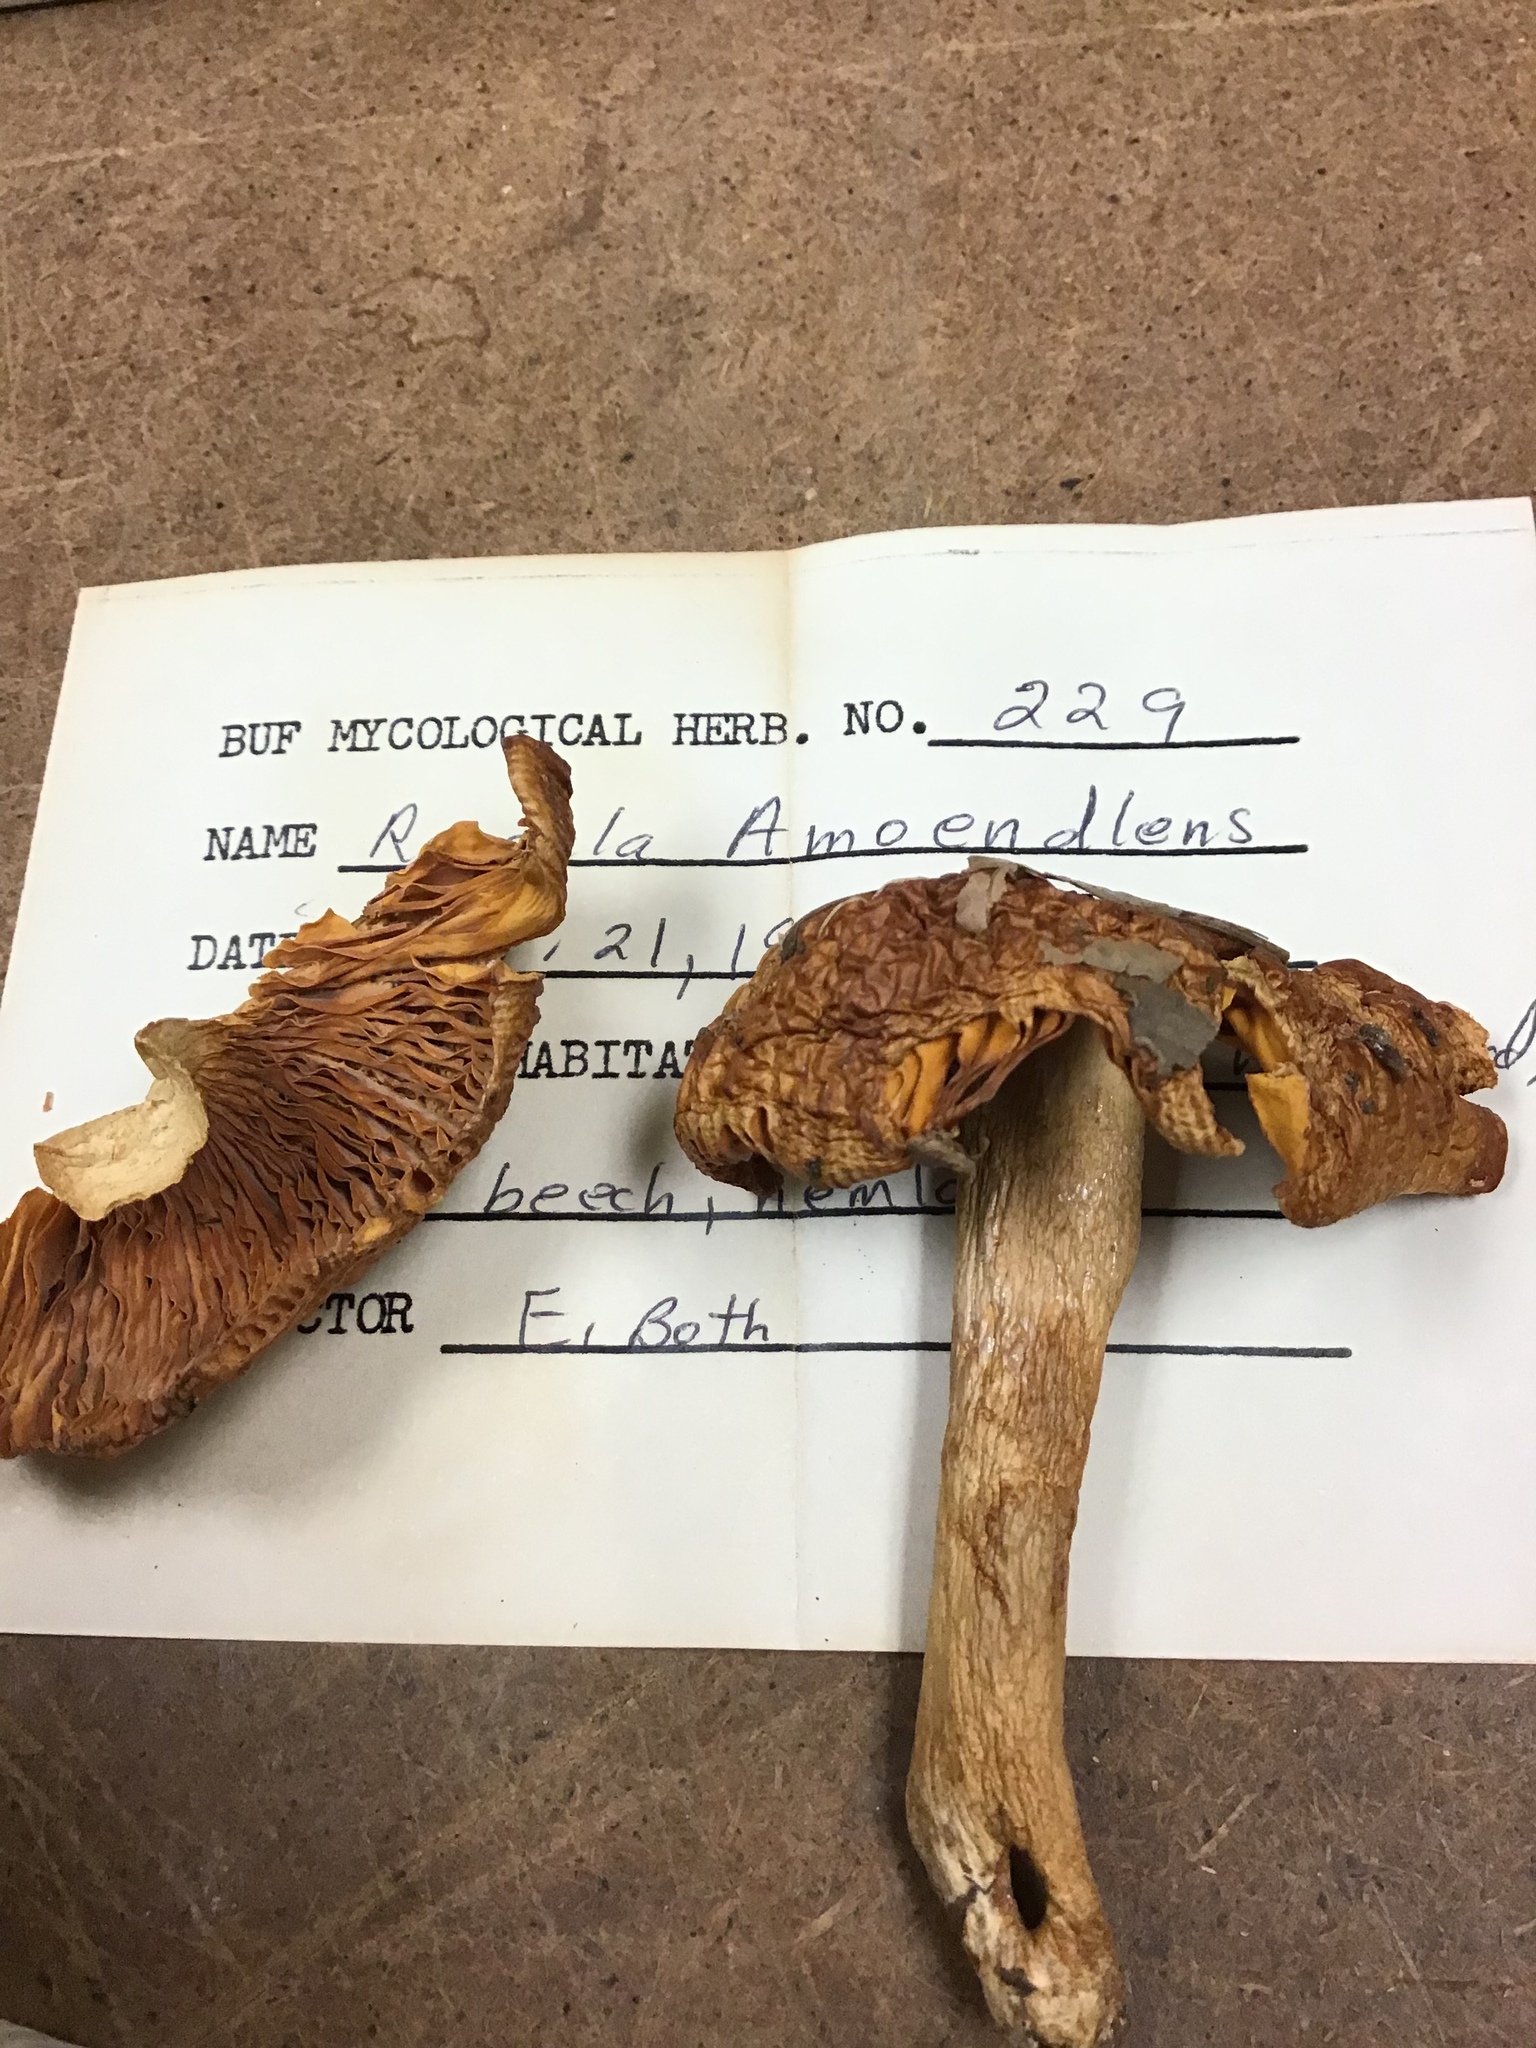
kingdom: Fungi
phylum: Basidiomycota
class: Agaricomycetes
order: Russulales
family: Russulaceae
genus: Russula
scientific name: Russula amoenolens
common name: Camembert brittlegill
